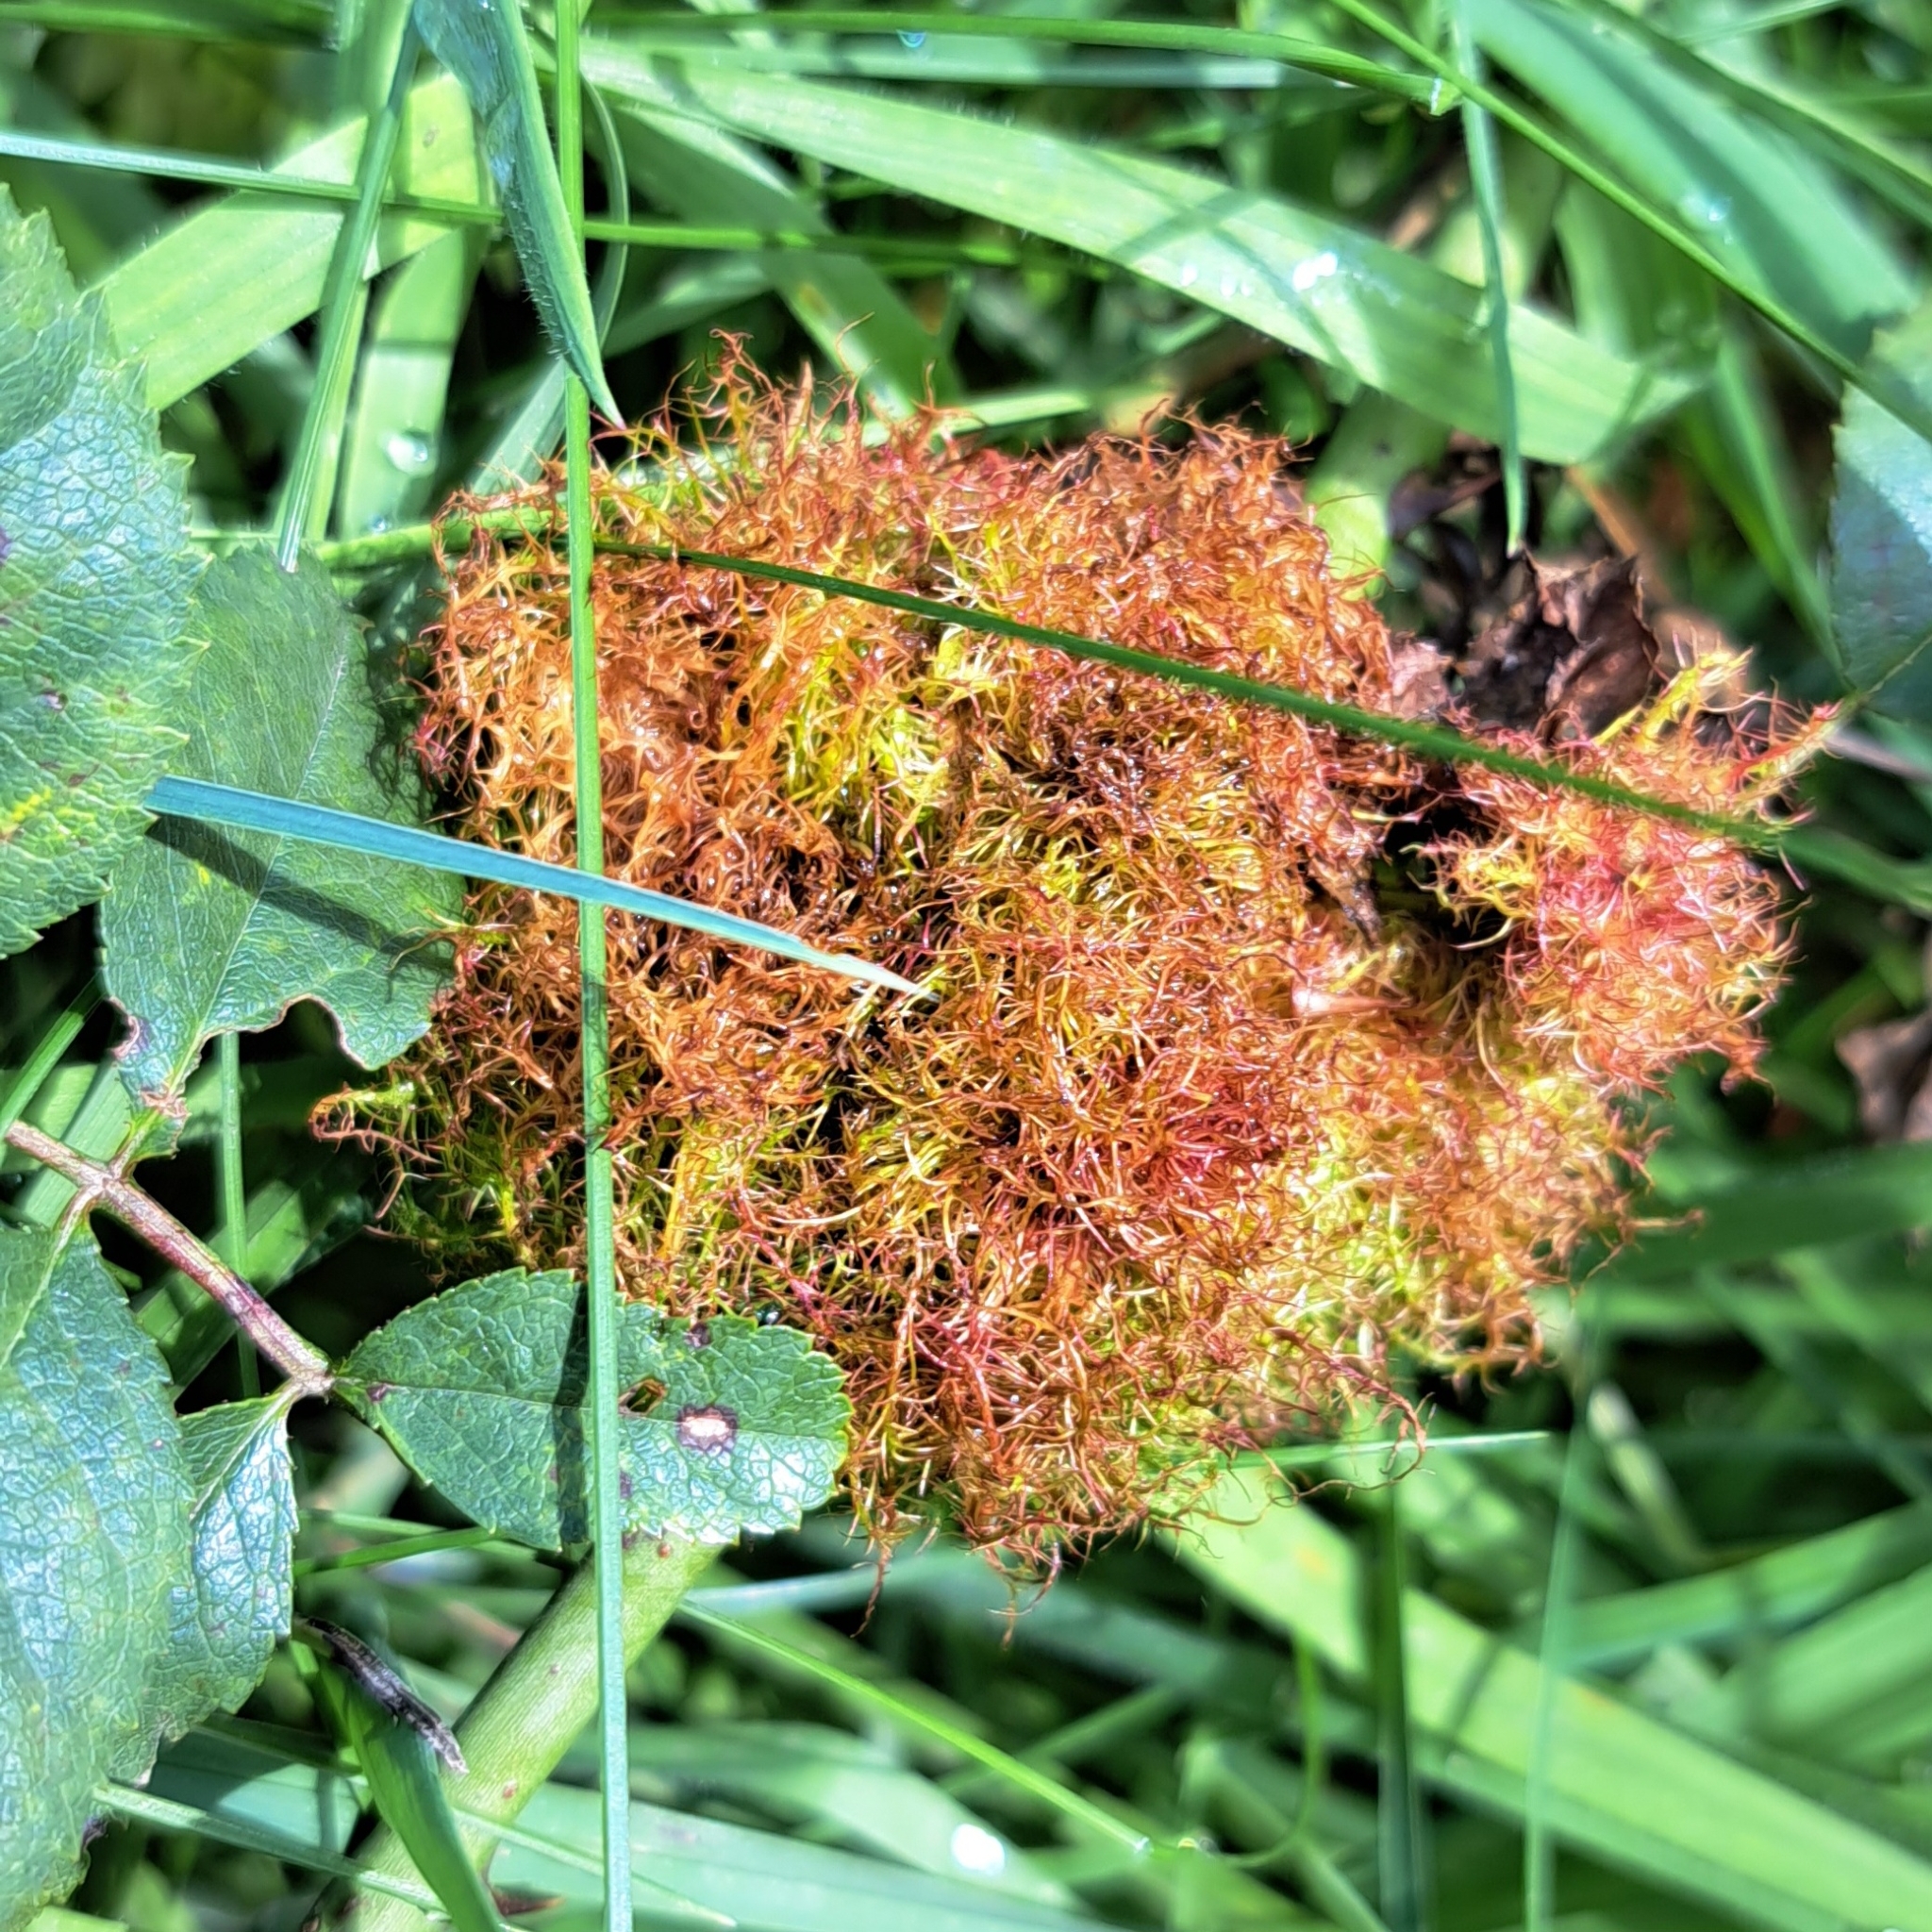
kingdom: Animalia
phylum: Arthropoda
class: Insecta
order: Hymenoptera
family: Cynipidae
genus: Diplolepis
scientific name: Diplolepis rosae
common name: Bedeguar gall
